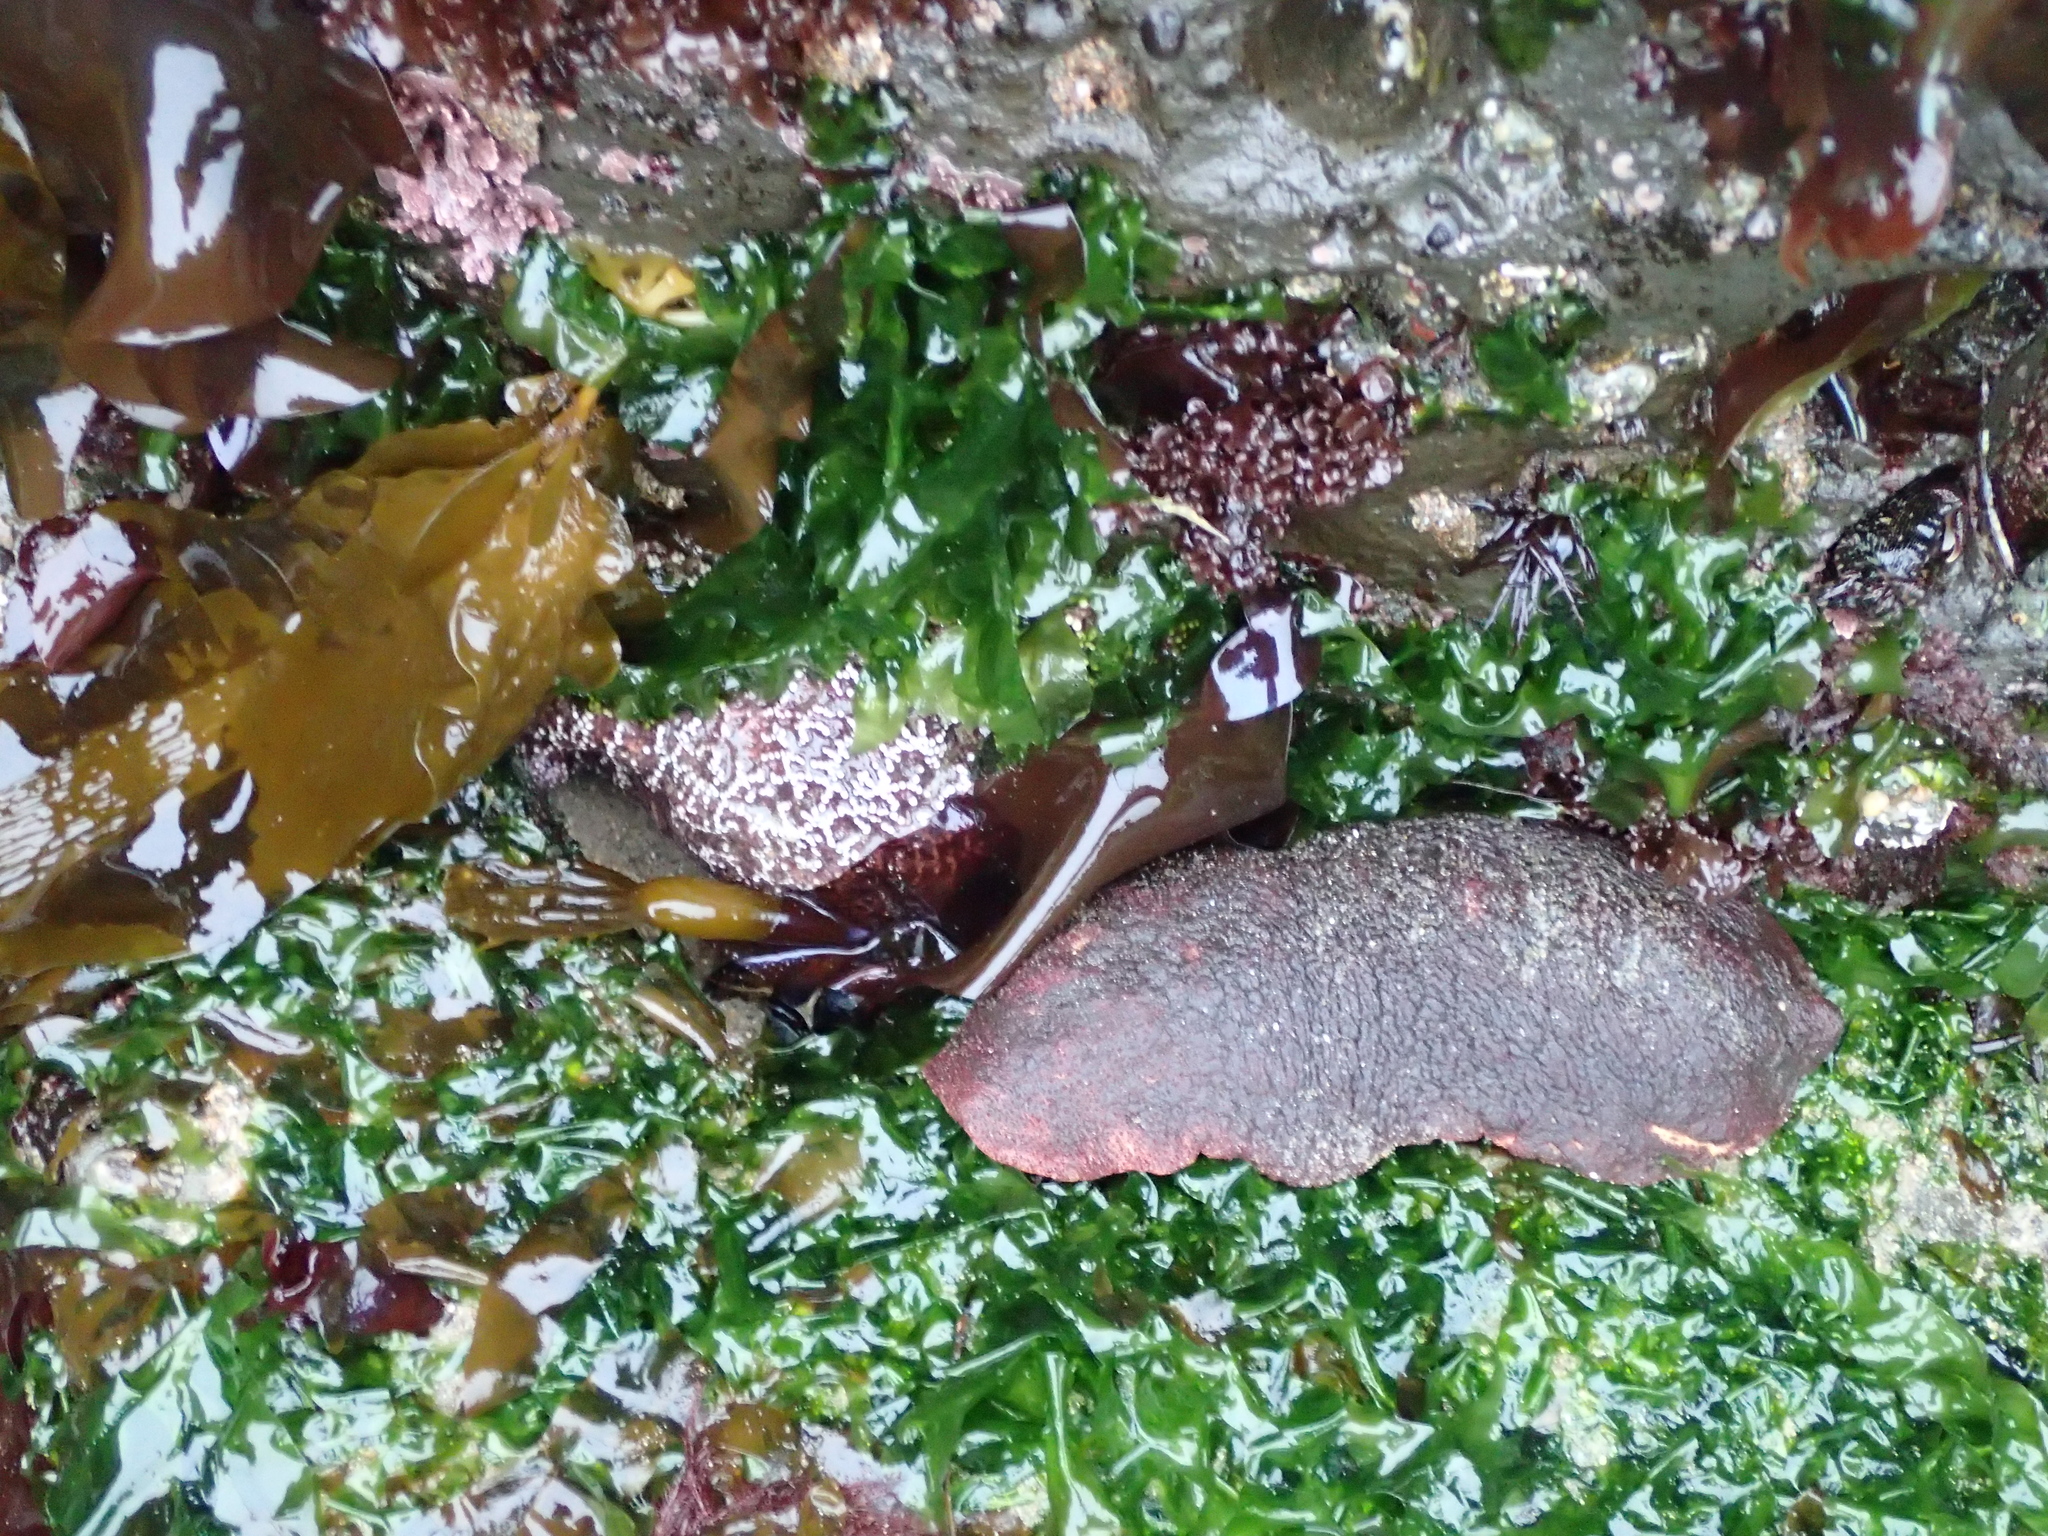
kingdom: Animalia
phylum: Mollusca
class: Polyplacophora
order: Chitonida
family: Acanthochitonidae
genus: Cryptochiton
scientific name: Cryptochiton stelleri
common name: Giant pacific chiton
